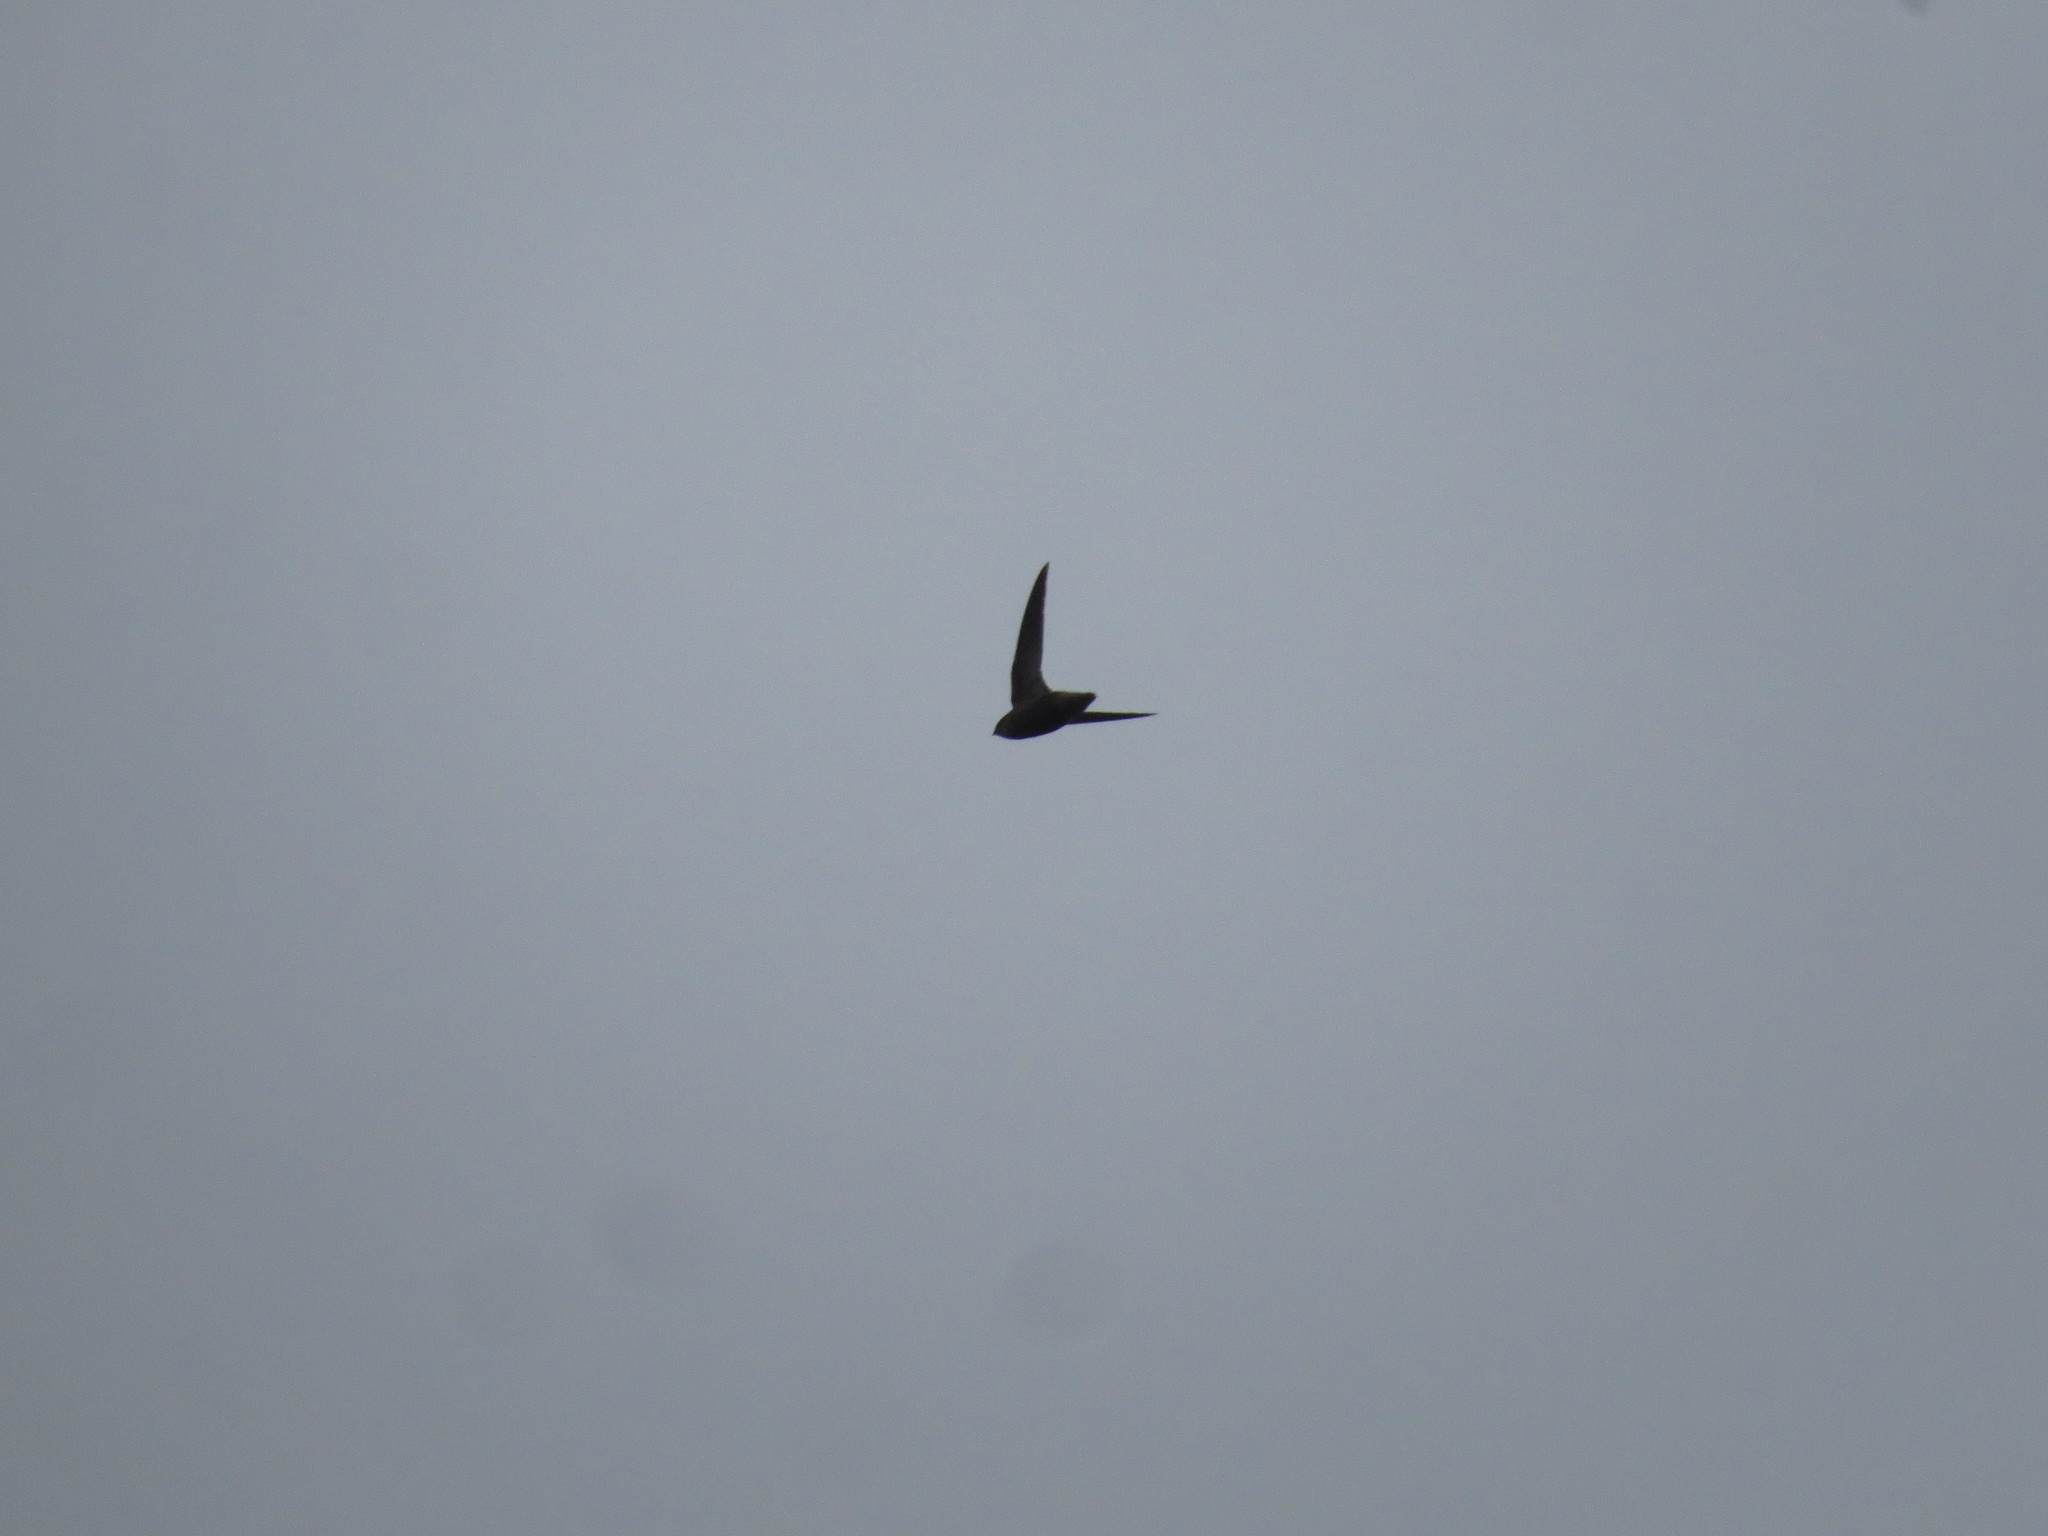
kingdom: Animalia
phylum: Chordata
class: Aves
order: Apodiformes
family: Apodidae
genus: Chaetura
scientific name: Chaetura meridionalis
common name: Sick's swift
